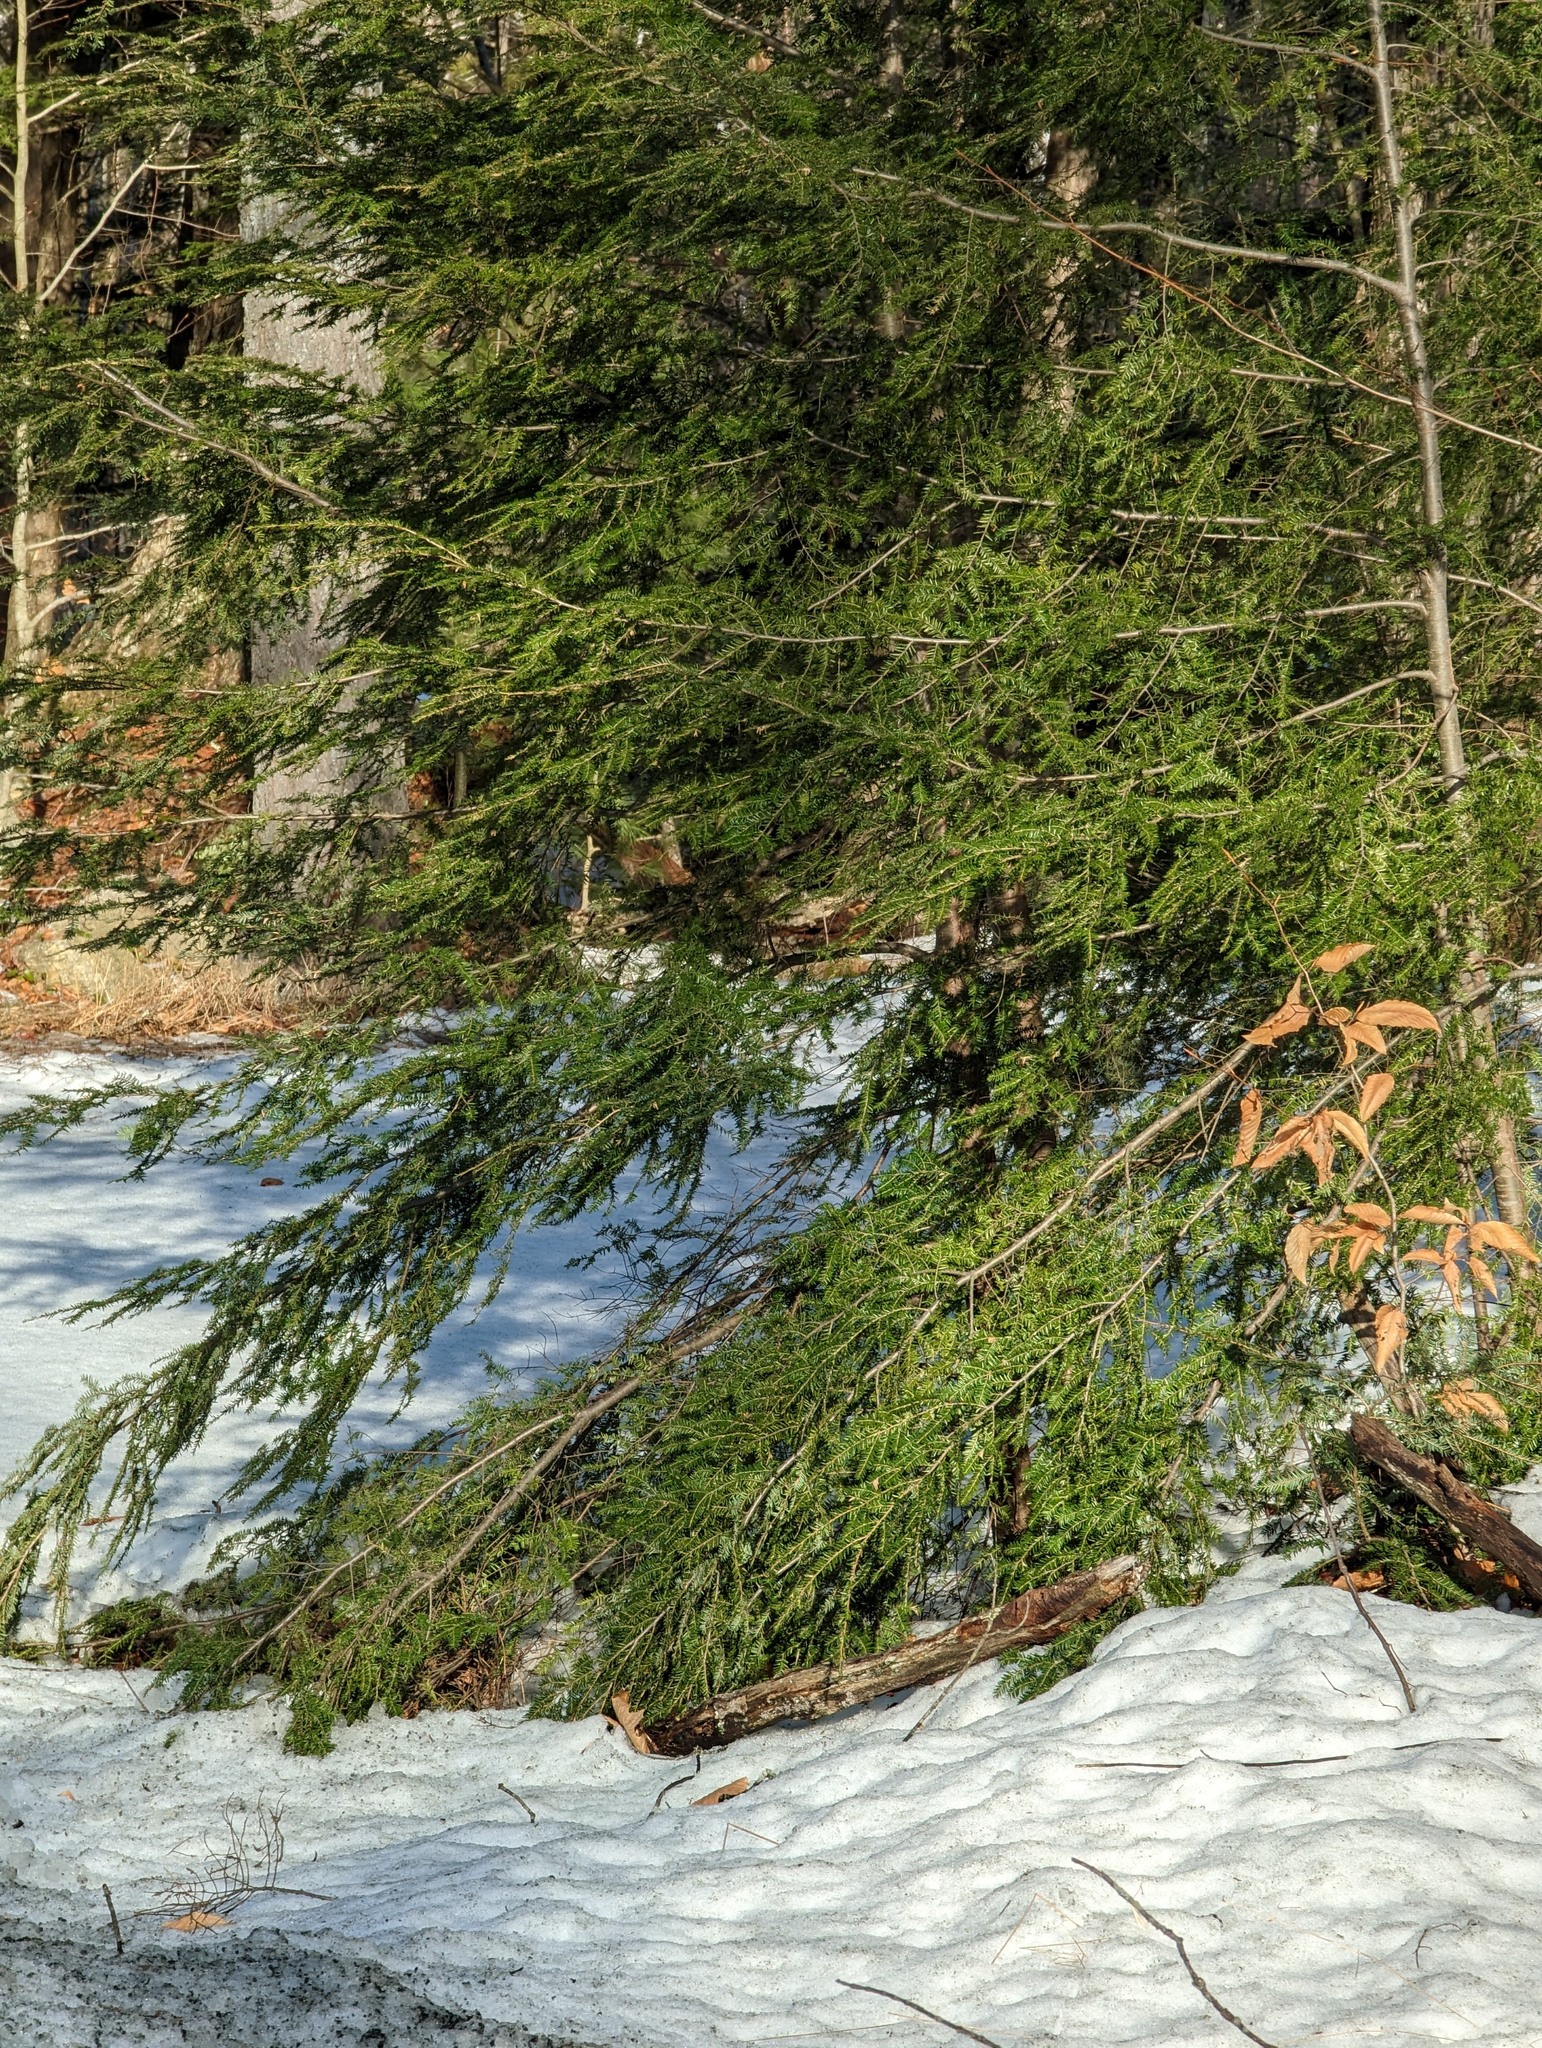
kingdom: Plantae
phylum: Tracheophyta
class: Pinopsida
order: Pinales
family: Pinaceae
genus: Tsuga
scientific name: Tsuga canadensis
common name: Eastern hemlock
